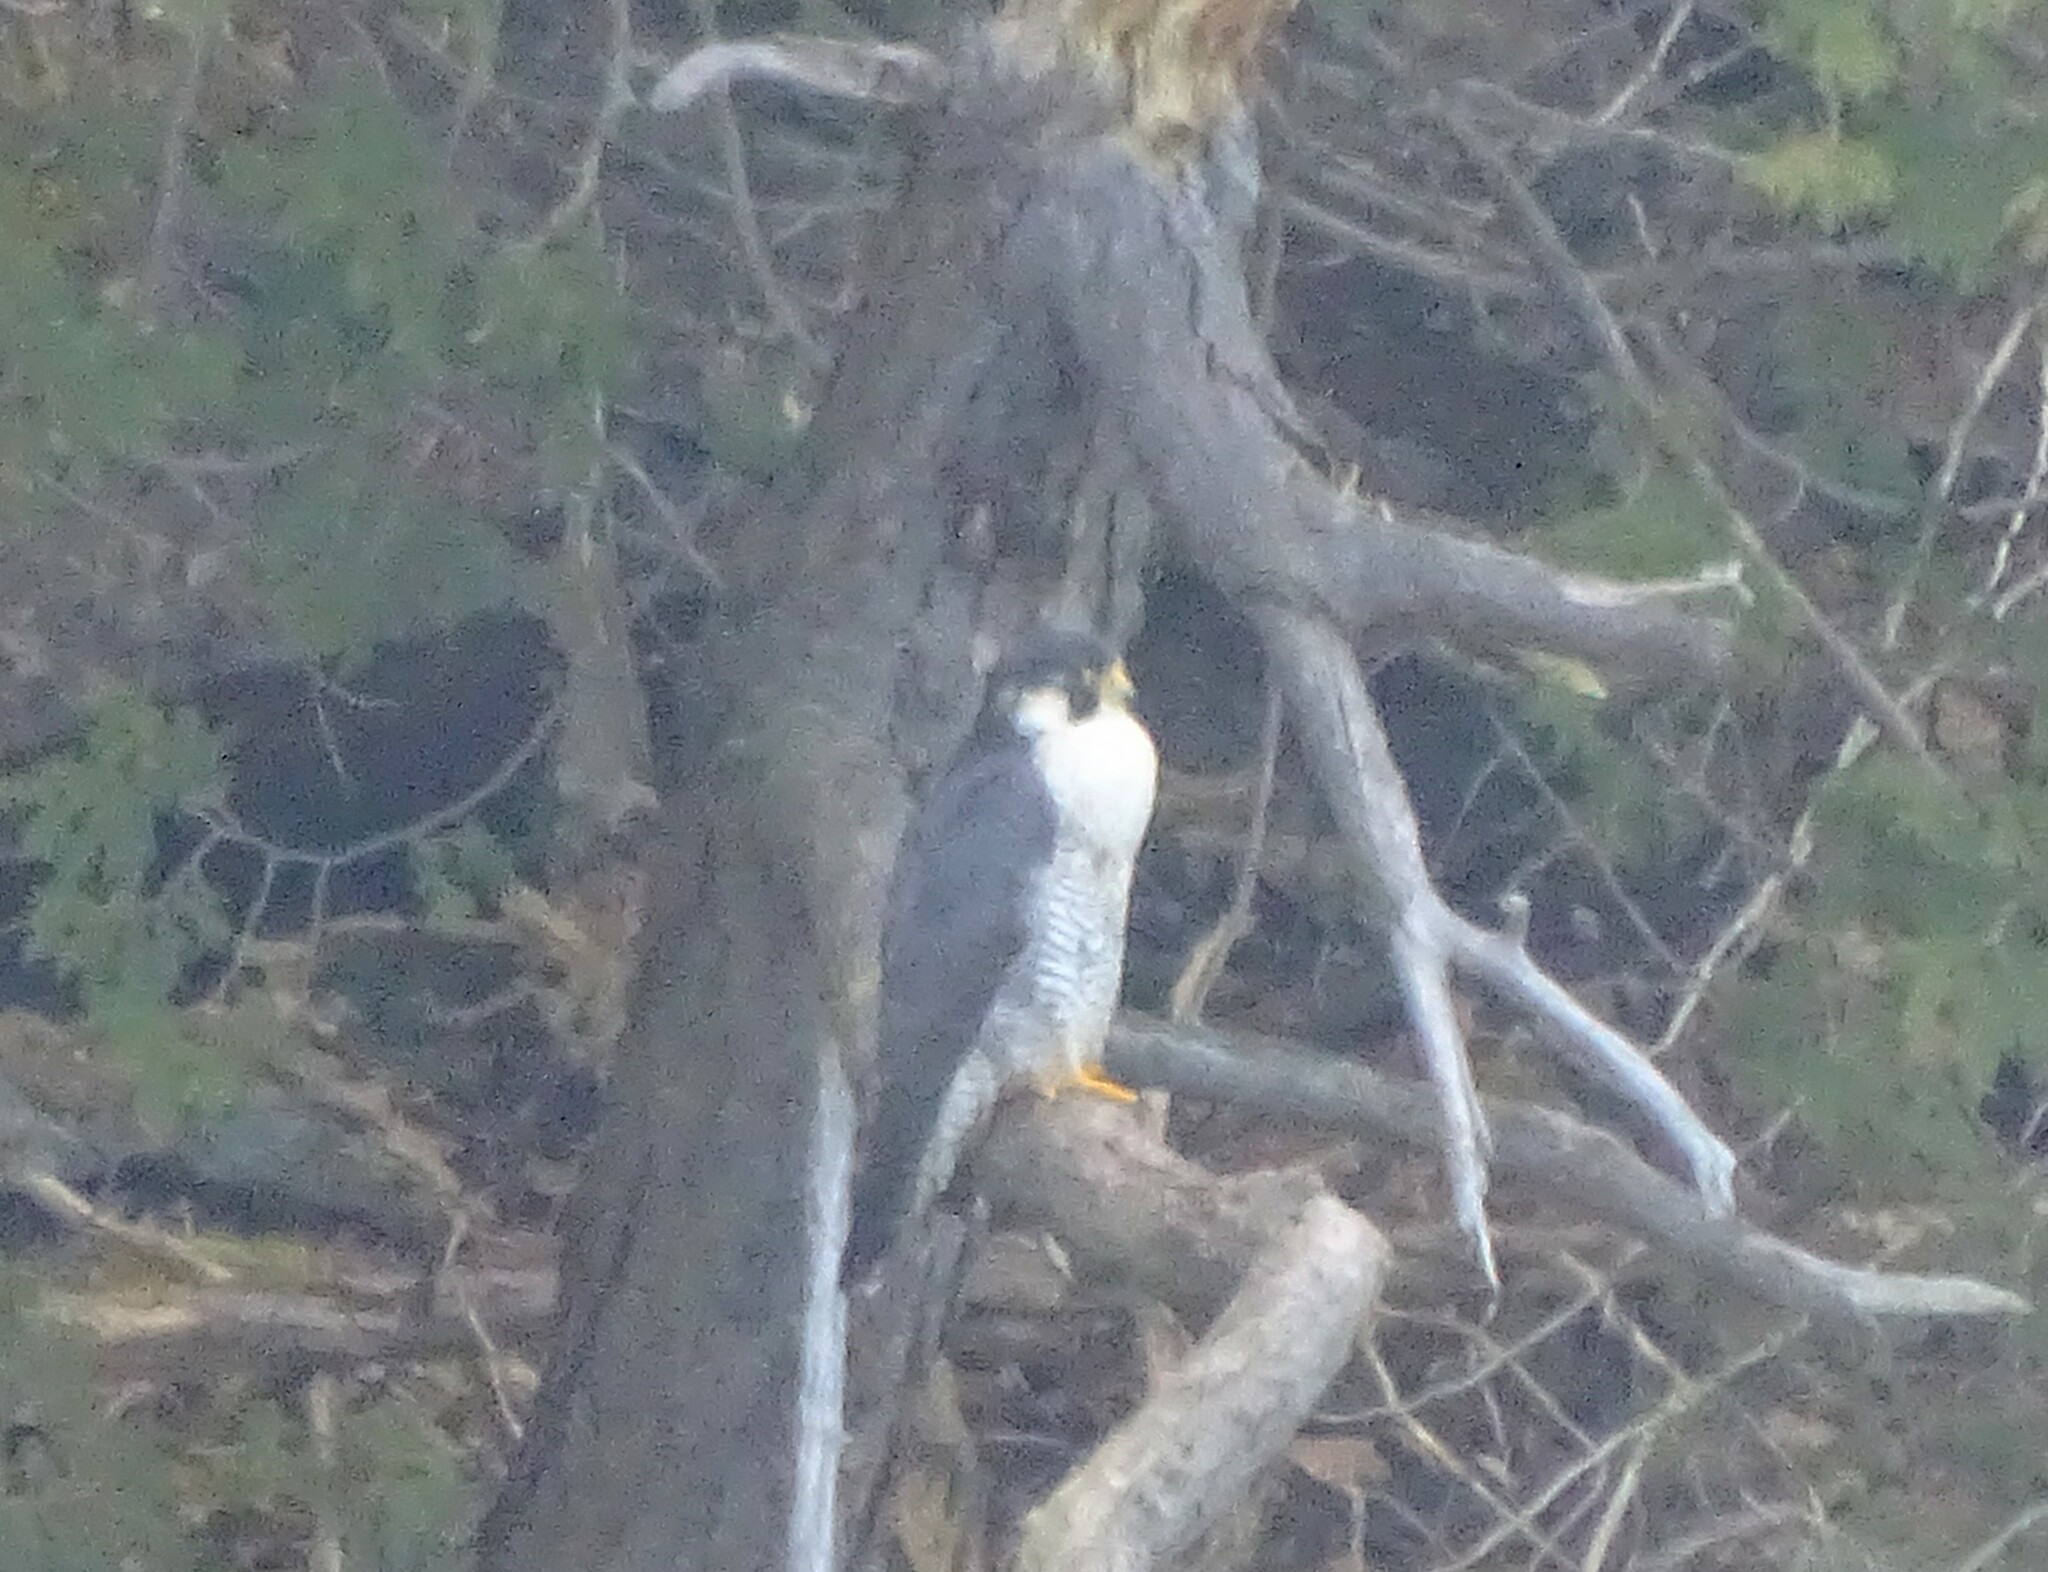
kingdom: Animalia
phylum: Chordata
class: Aves
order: Falconiformes
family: Falconidae
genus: Falco
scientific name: Falco peregrinus
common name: Peregrine falcon
